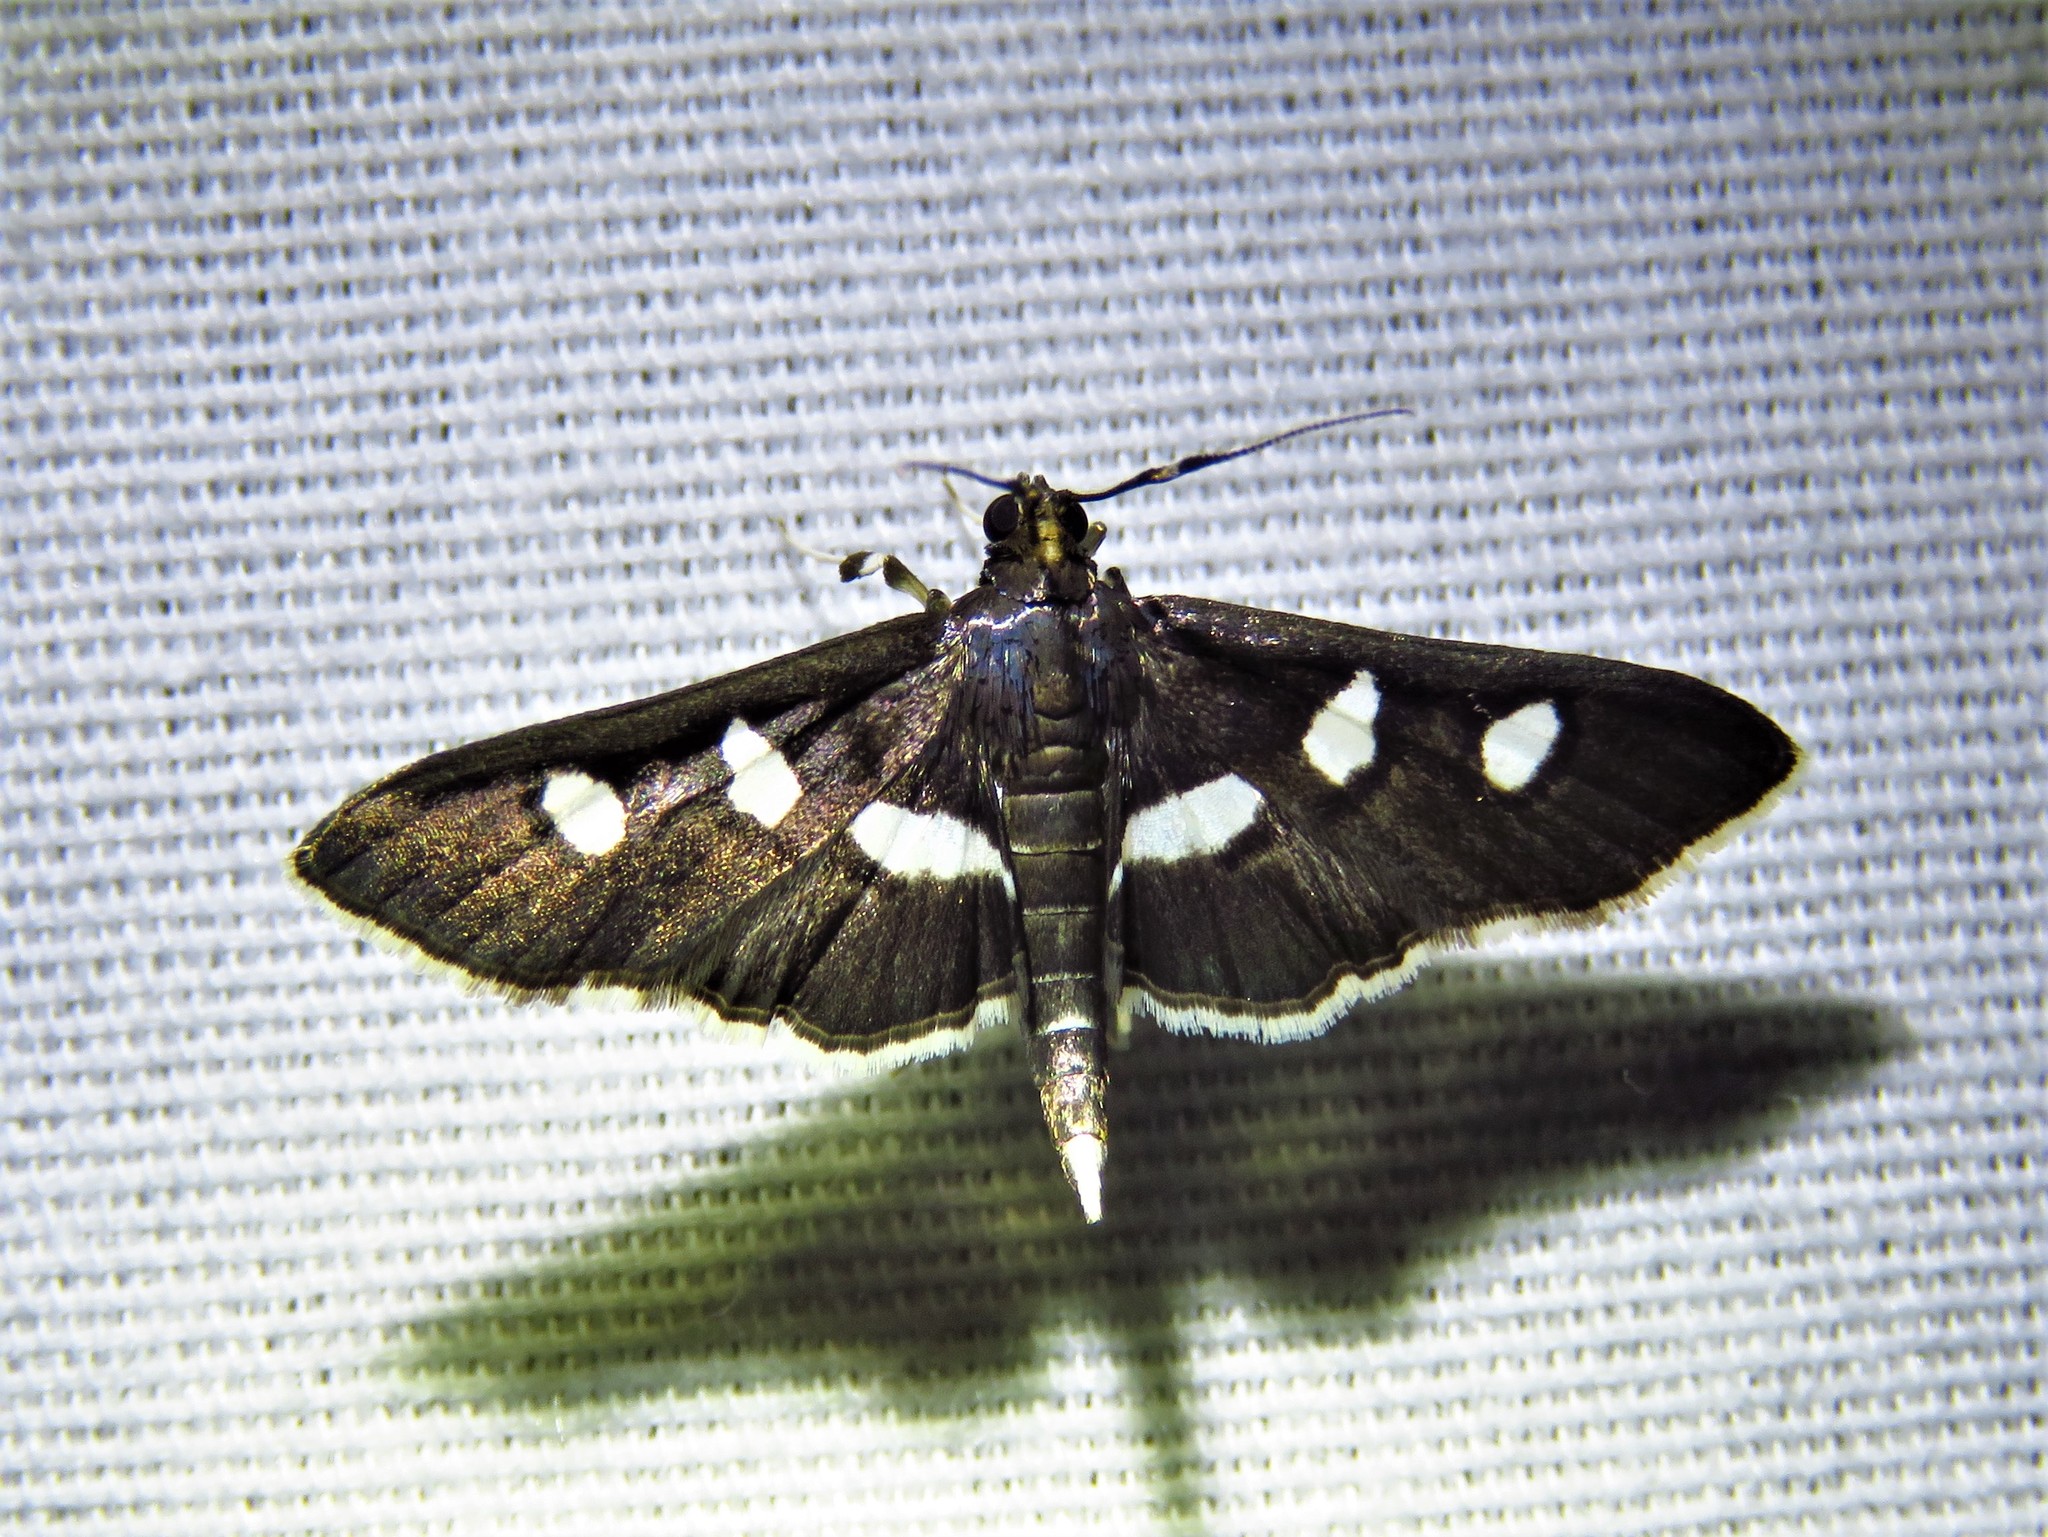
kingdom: Animalia
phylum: Arthropoda
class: Insecta
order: Lepidoptera
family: Crambidae
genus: Desmia
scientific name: Desmia
